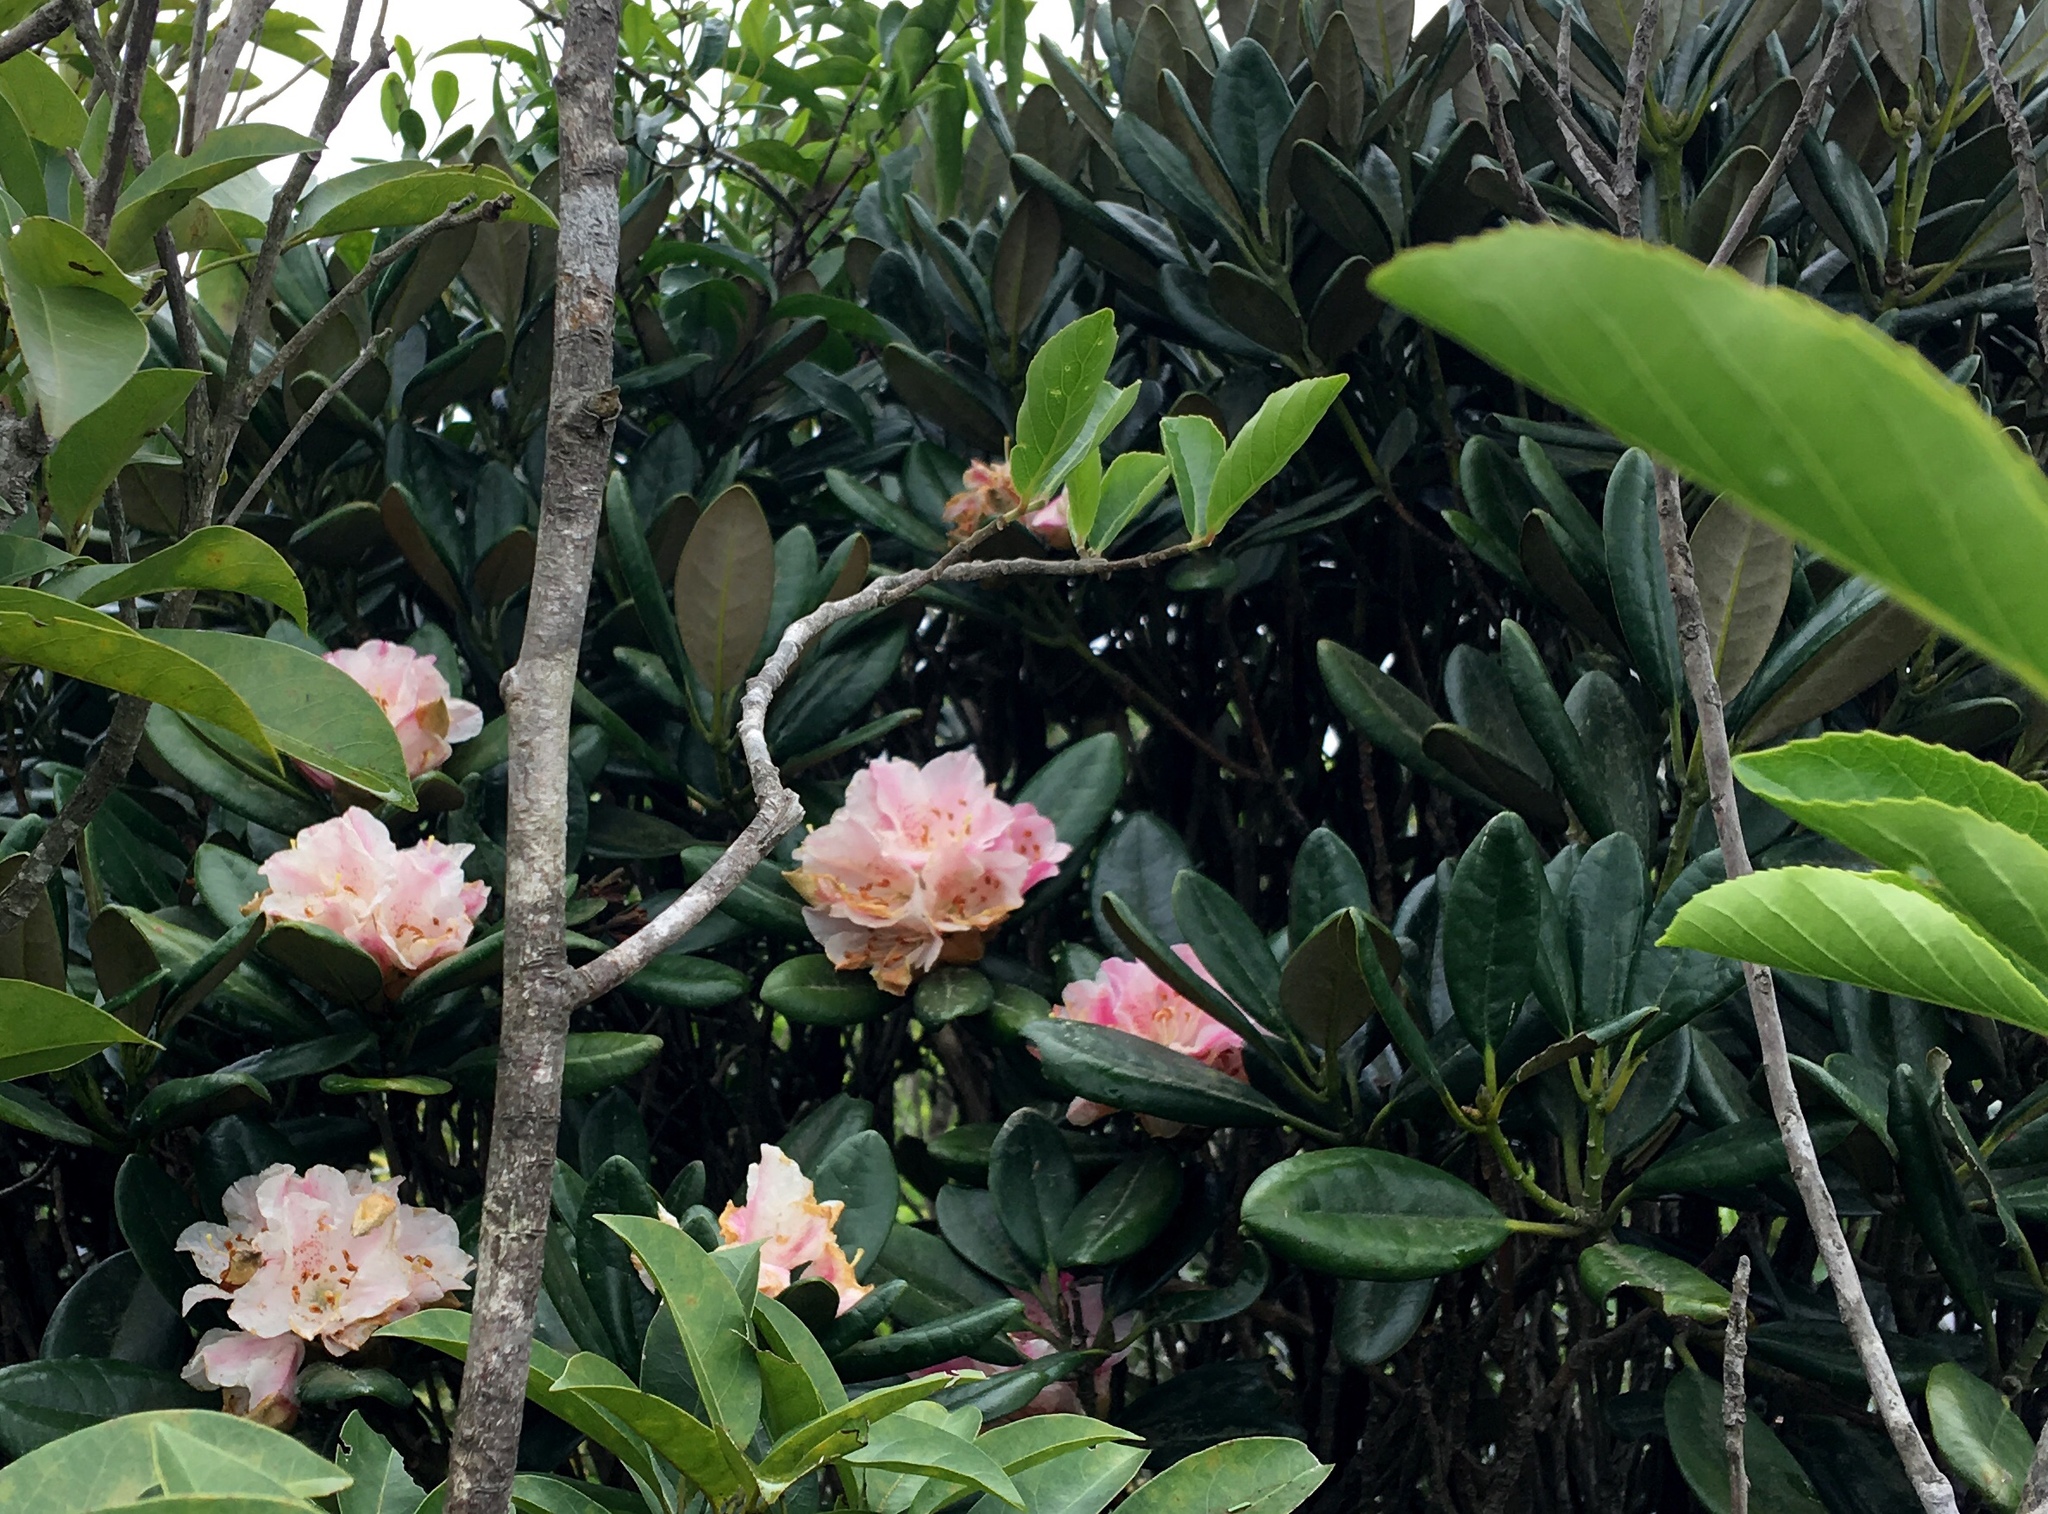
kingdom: Plantae
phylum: Tracheophyta
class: Magnoliopsida
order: Ericales
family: Ericaceae
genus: Rhododendron
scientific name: Rhododendron simiarum
